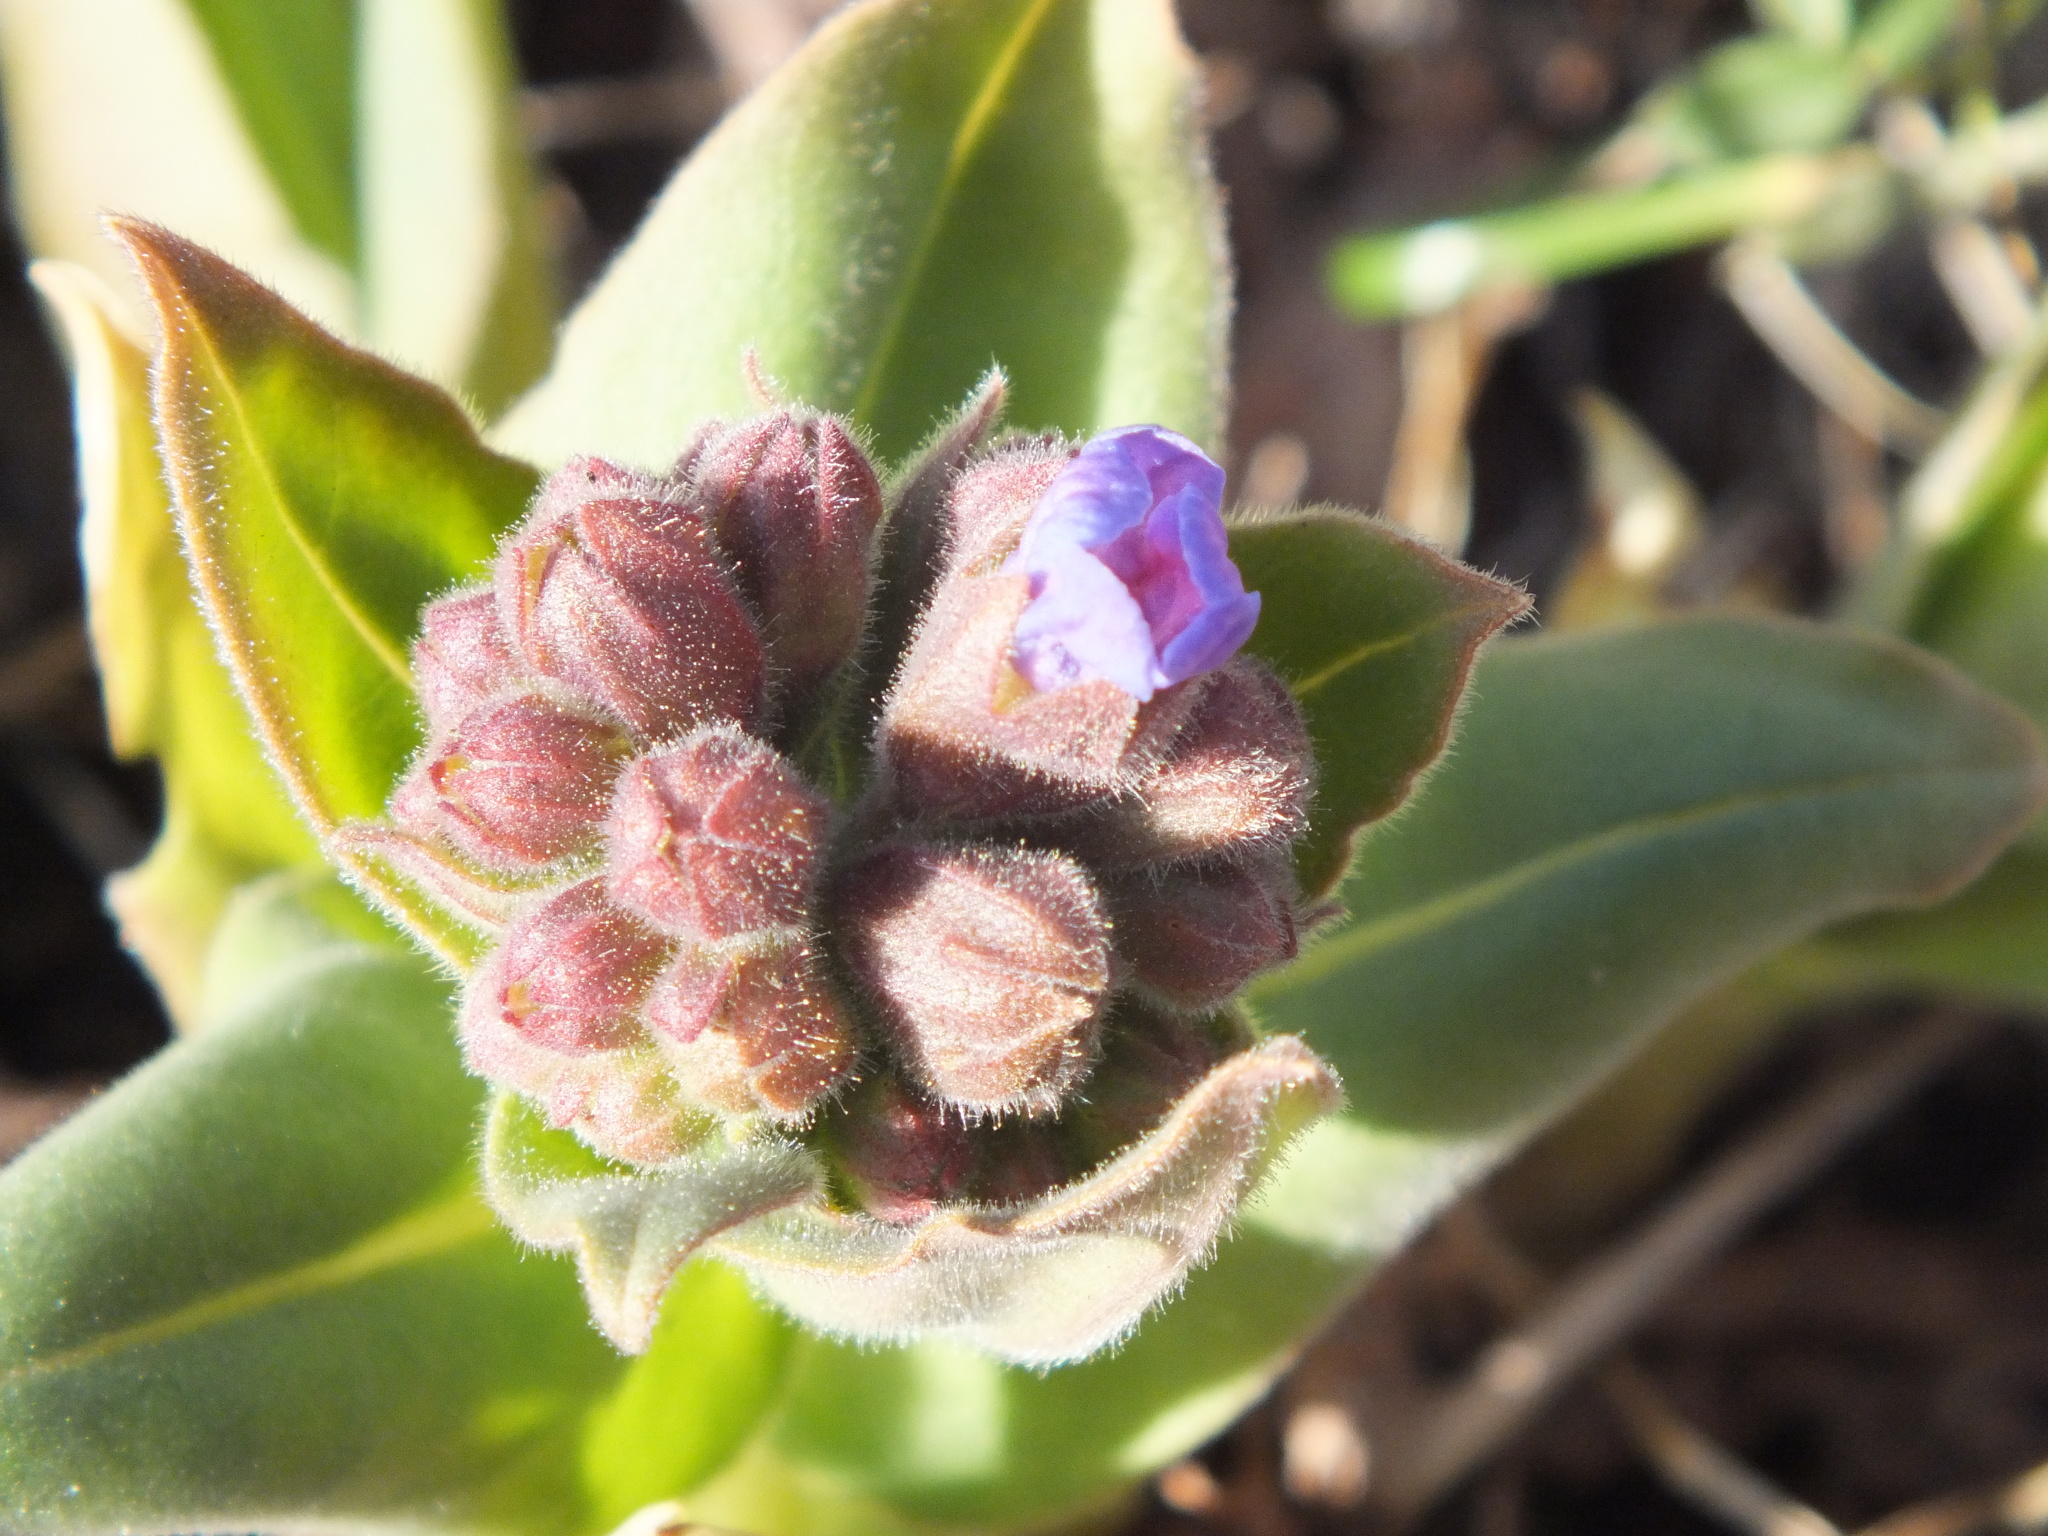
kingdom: Plantae
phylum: Tracheophyta
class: Magnoliopsida
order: Boraginales
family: Boraginaceae
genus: Pulmonaria
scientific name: Pulmonaria mollis
